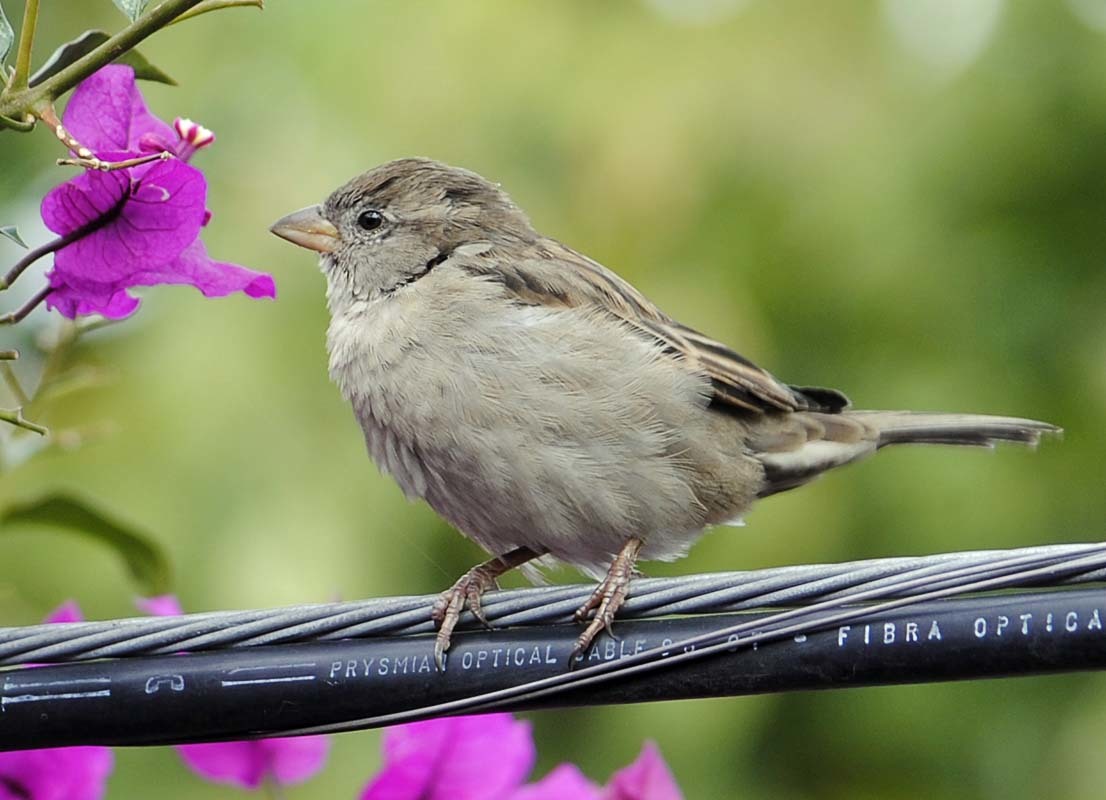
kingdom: Animalia
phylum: Chordata
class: Aves
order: Passeriformes
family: Passeridae
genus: Passer
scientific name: Passer domesticus
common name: House sparrow
